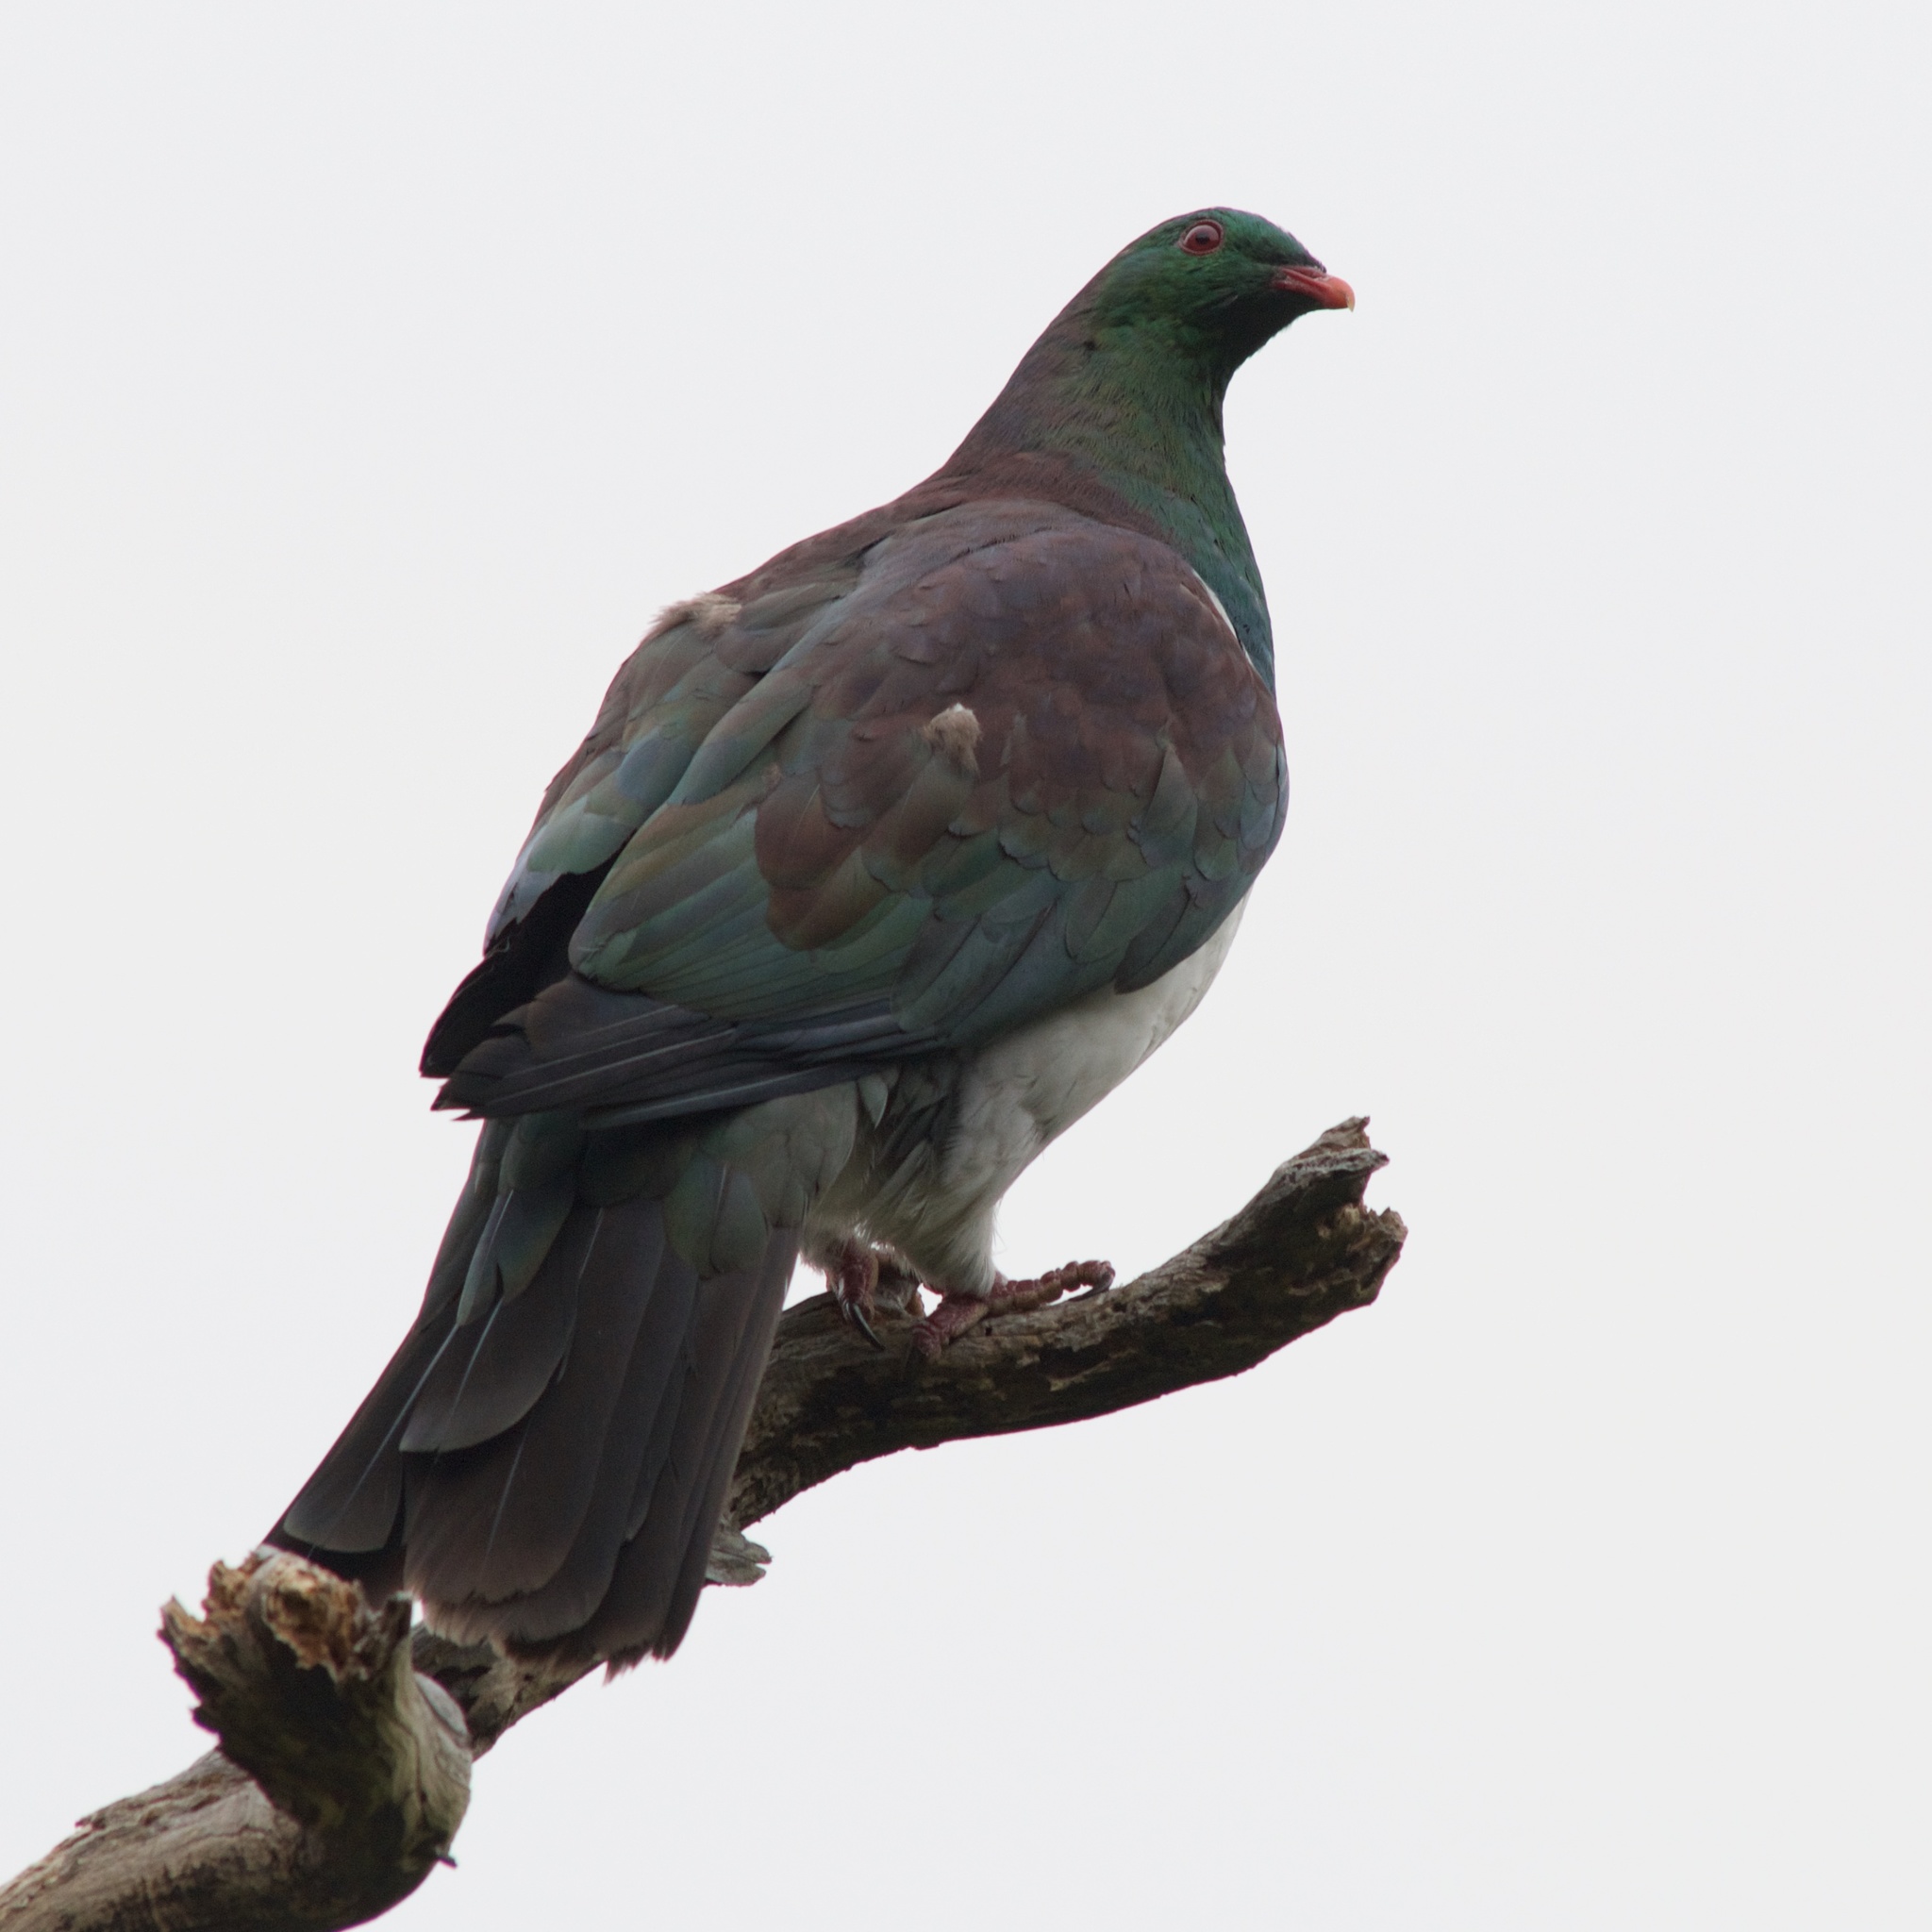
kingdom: Animalia
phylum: Chordata
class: Aves
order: Columbiformes
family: Columbidae
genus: Hemiphaga
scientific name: Hemiphaga novaeseelandiae
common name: New zealand pigeon
